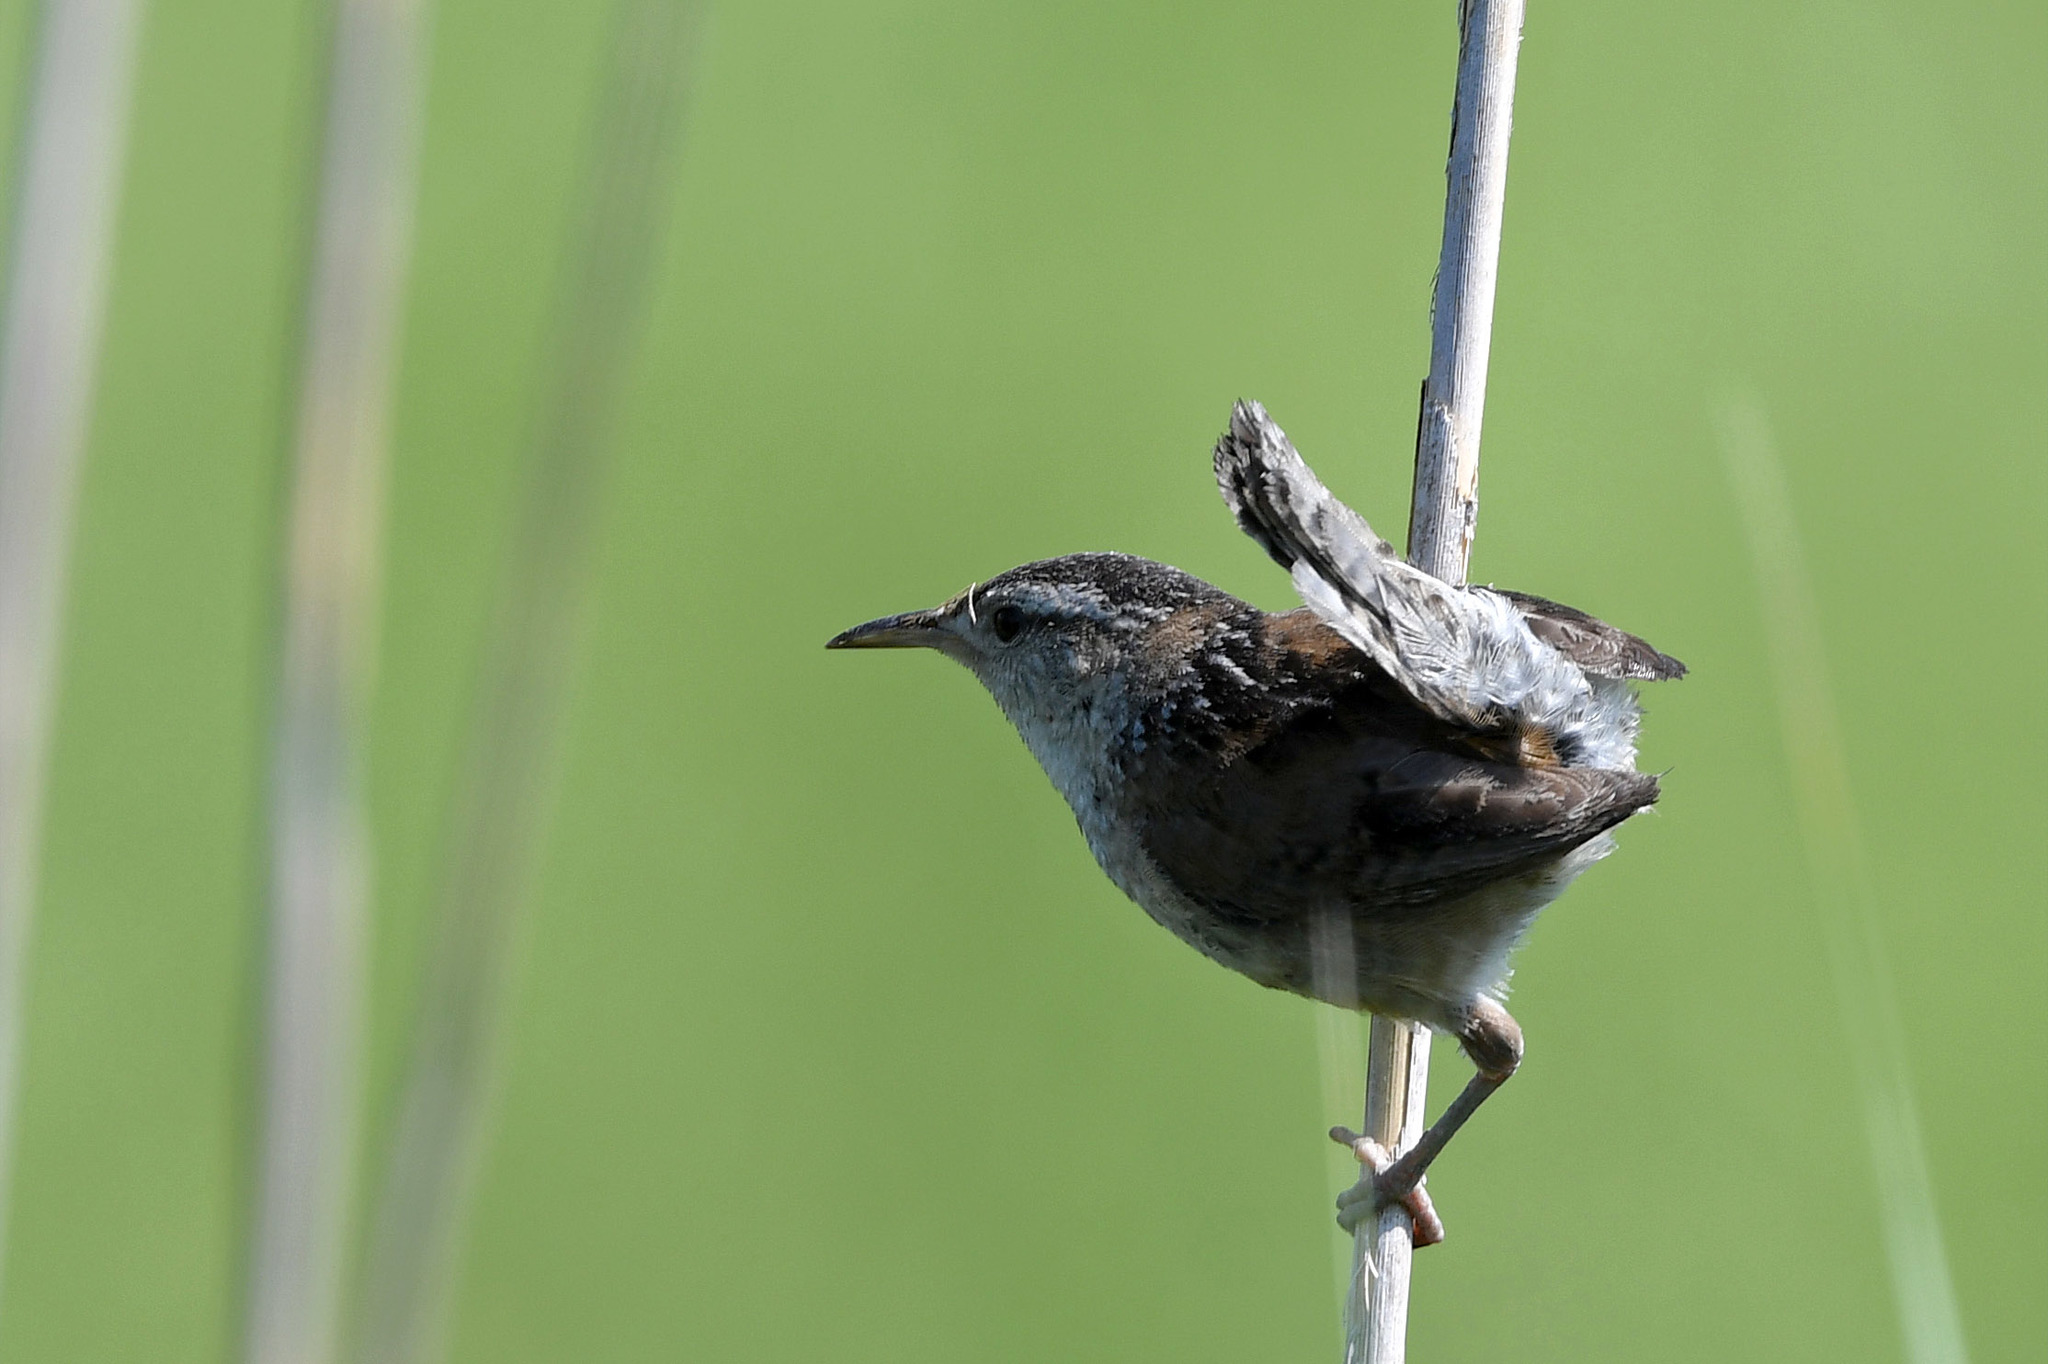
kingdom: Animalia
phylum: Chordata
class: Aves
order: Passeriformes
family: Troglodytidae
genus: Cistothorus
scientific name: Cistothorus palustris
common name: Marsh wren
